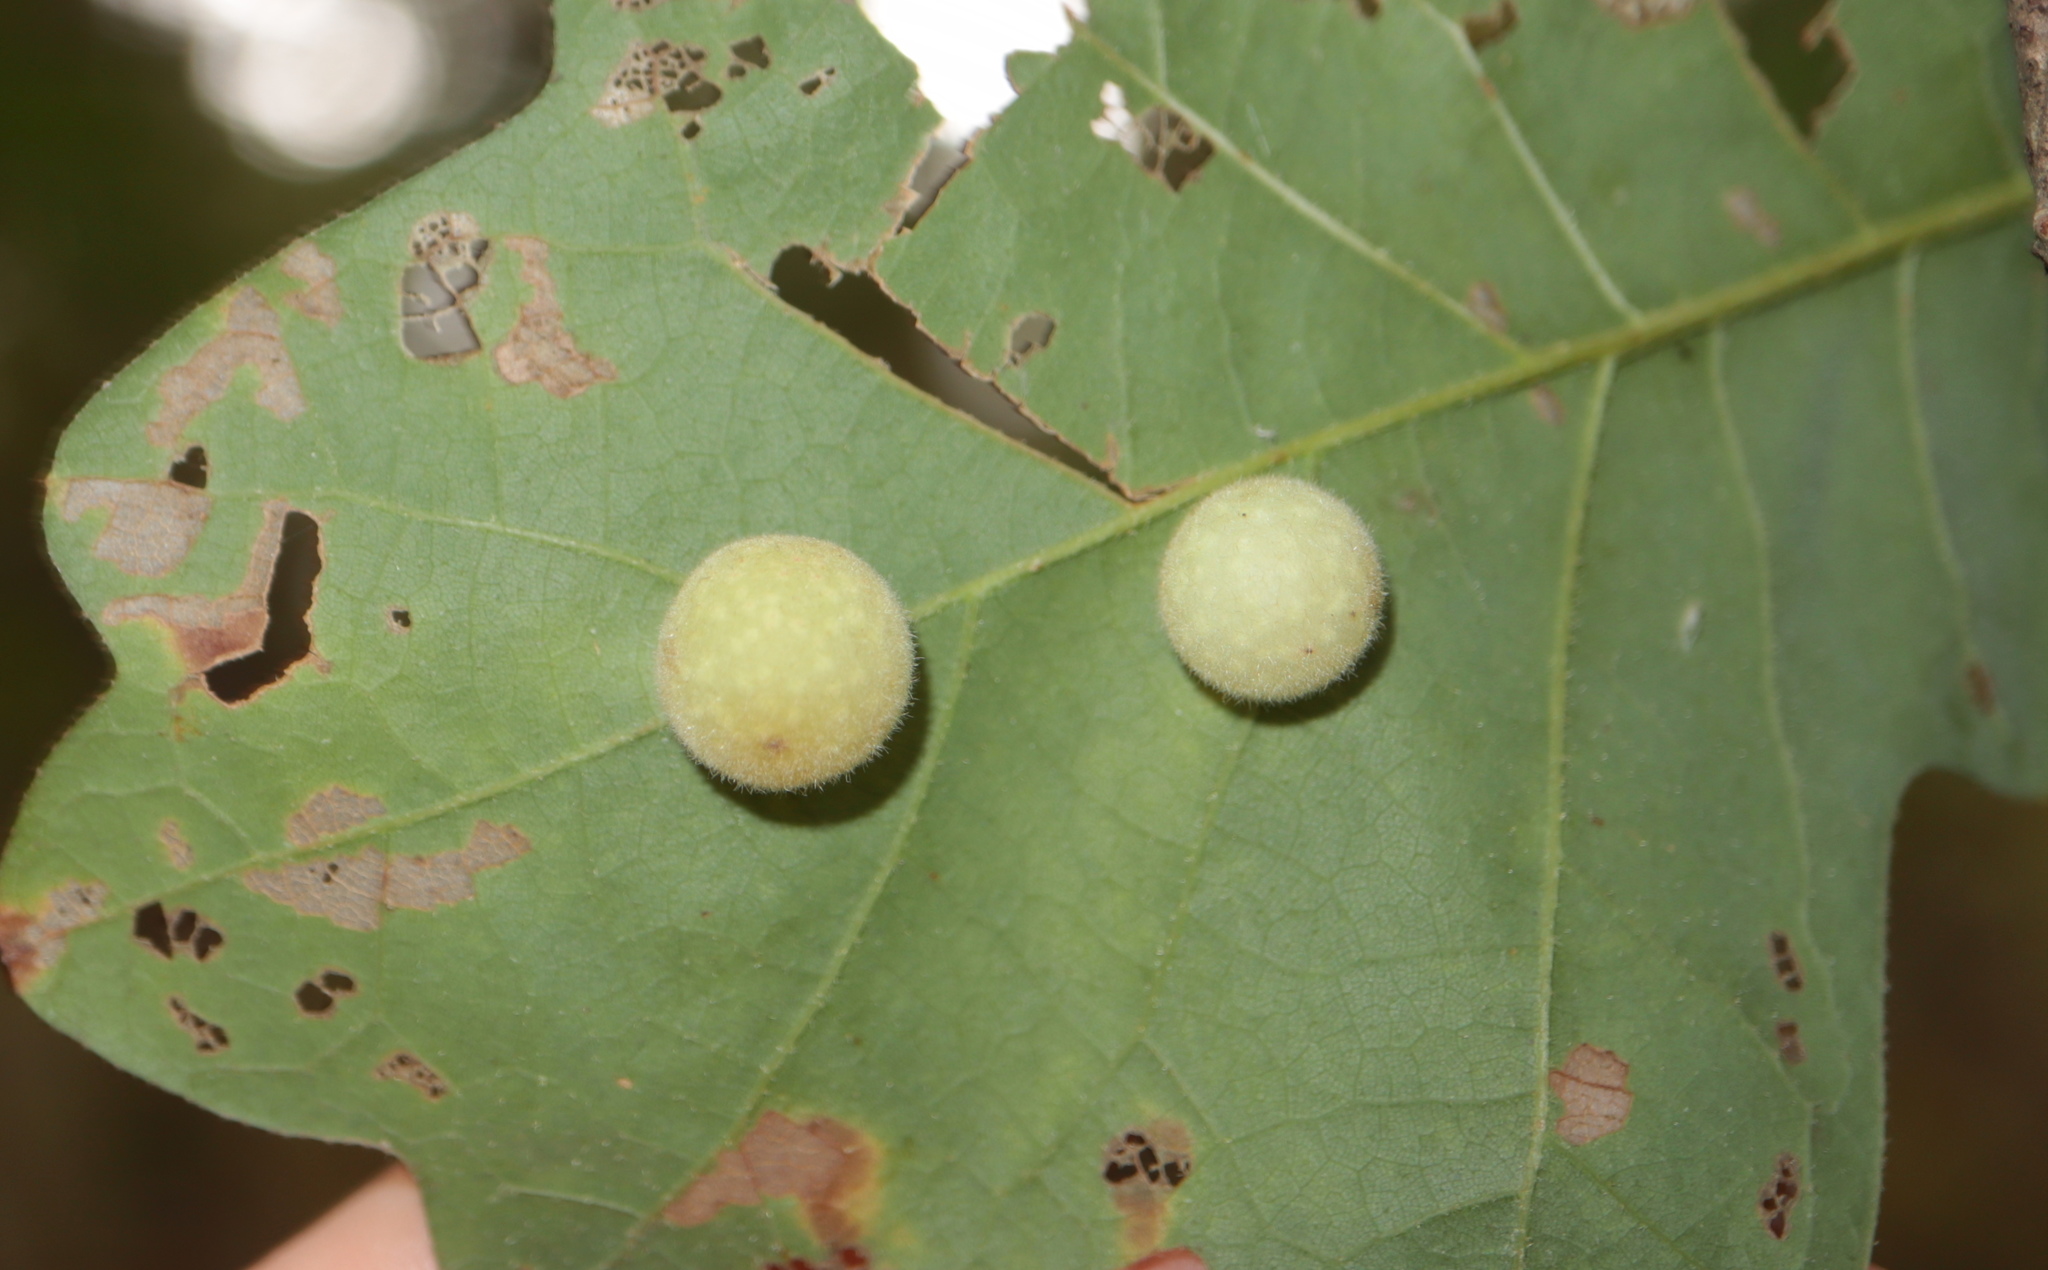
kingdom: Animalia
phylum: Arthropoda
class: Insecta
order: Hymenoptera
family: Cynipidae
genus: Atrusca
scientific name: Atrusca
